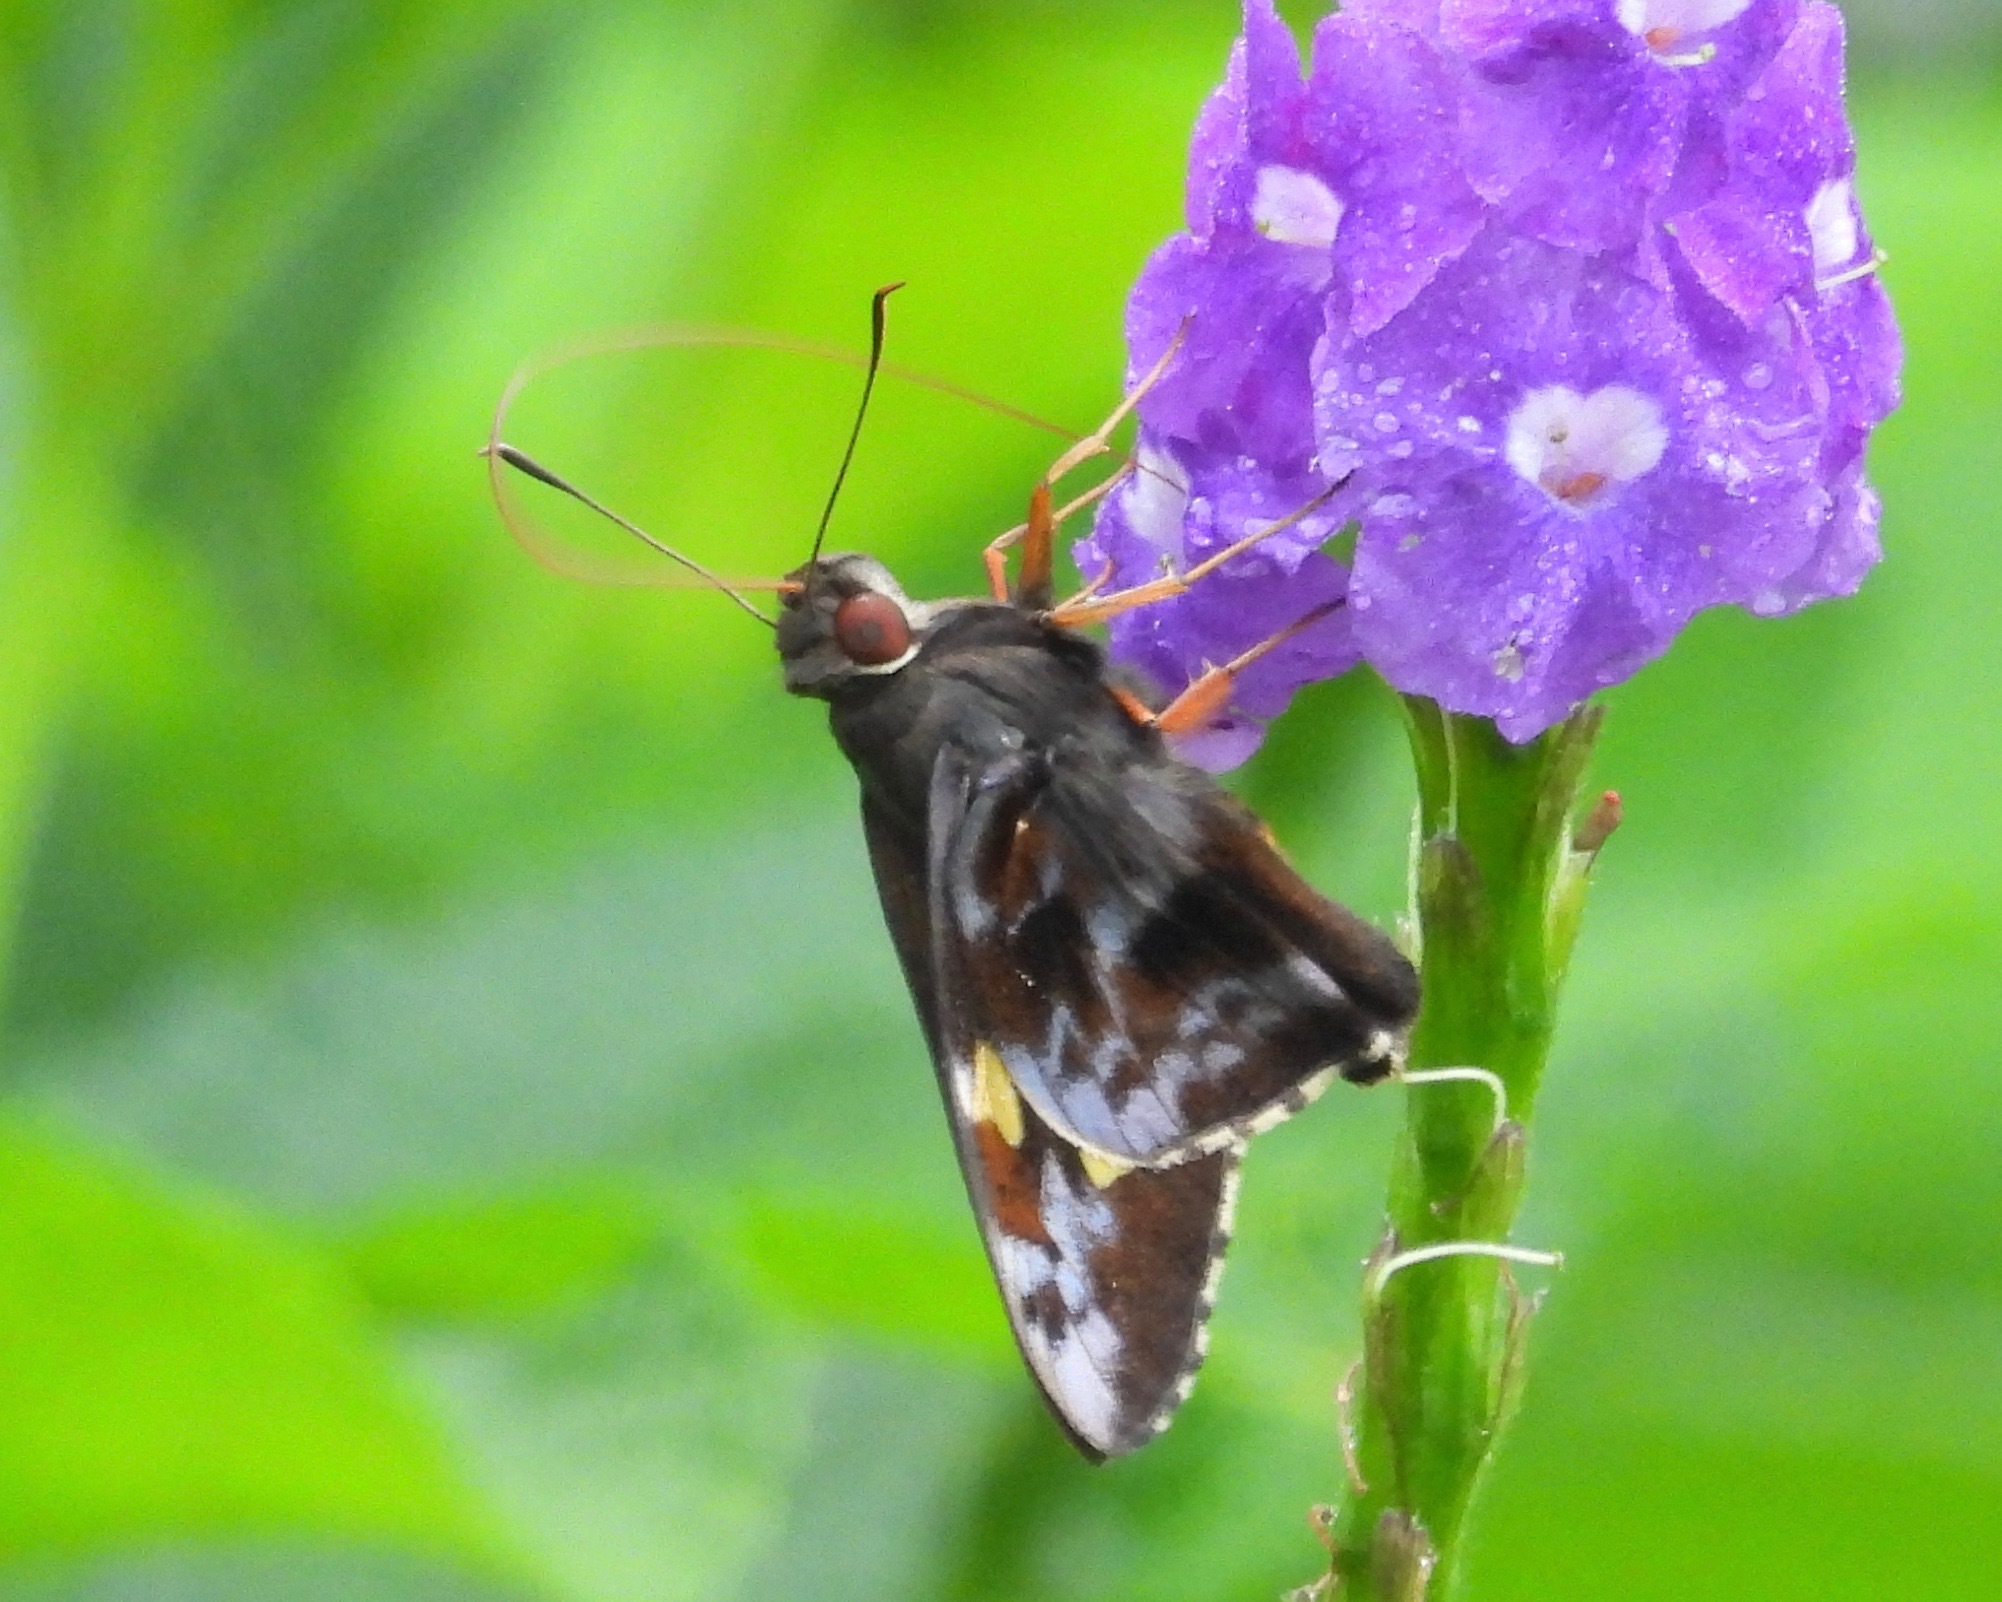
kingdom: Animalia
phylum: Arthropoda
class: Insecta
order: Lepidoptera
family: Hesperiidae
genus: Perichares
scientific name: Perichares philetes
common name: Green-backed ruby-eye
